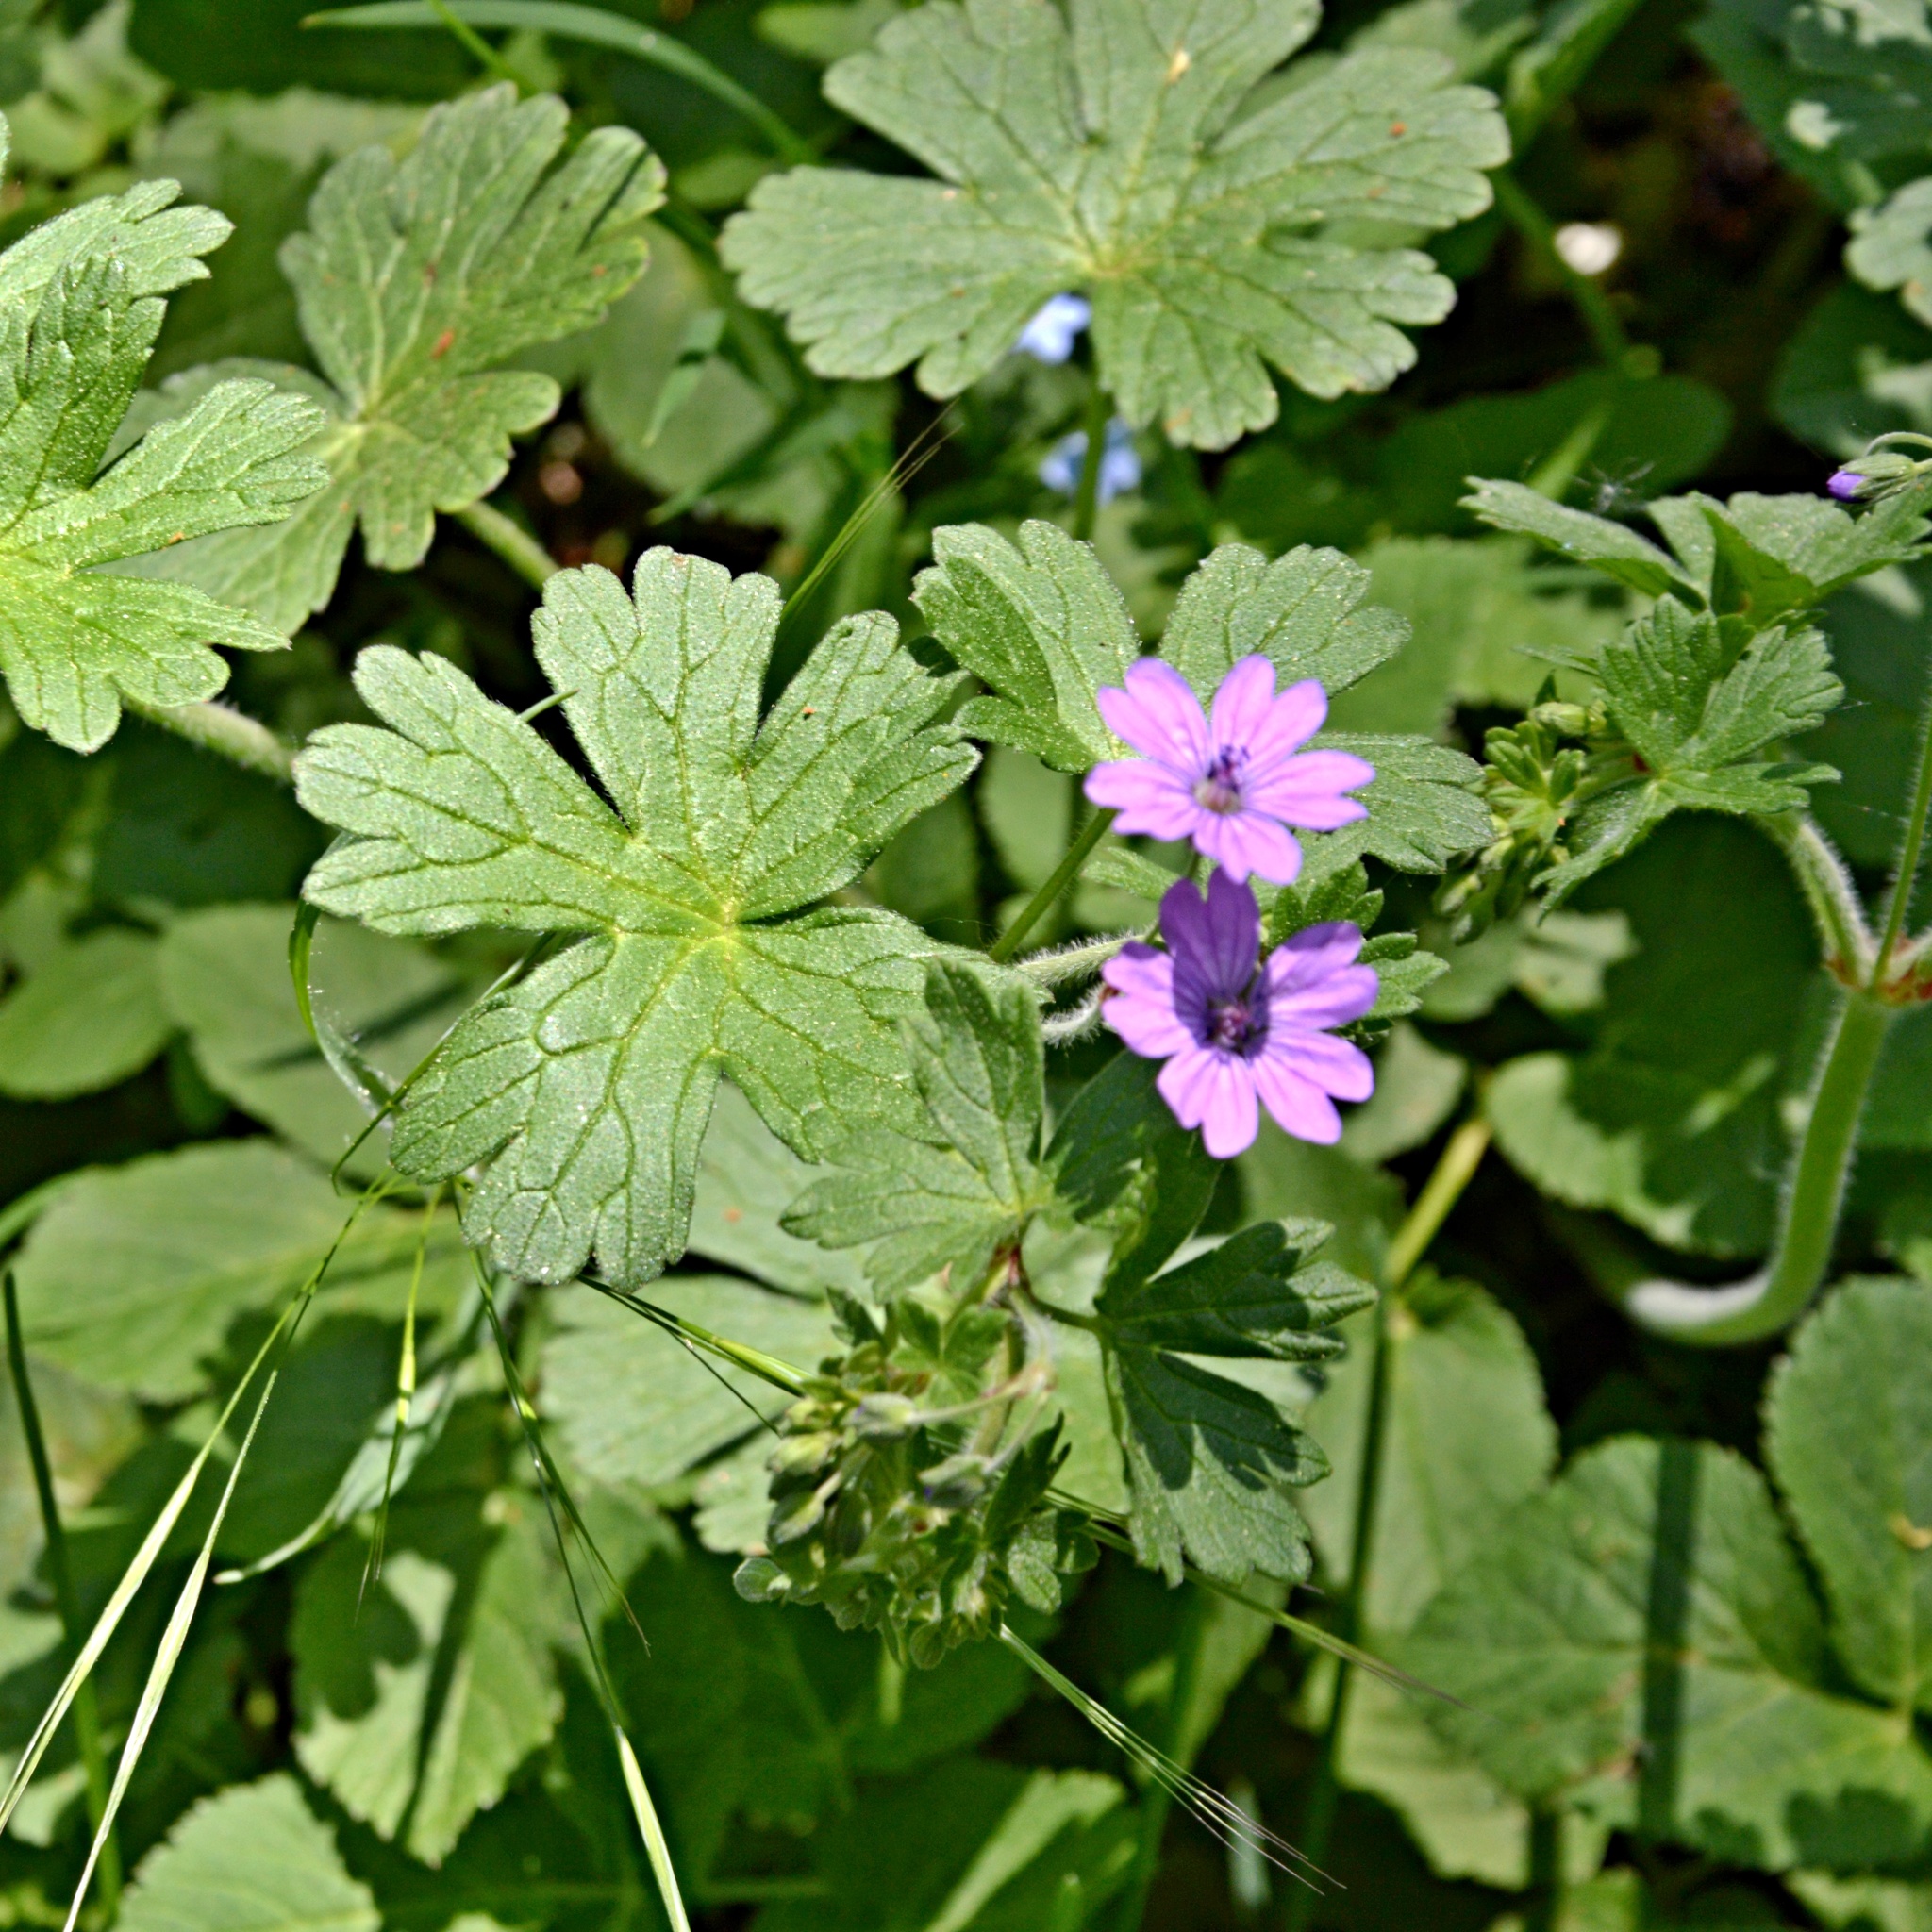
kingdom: Plantae
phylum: Tracheophyta
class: Magnoliopsida
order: Geraniales
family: Geraniaceae
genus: Geranium
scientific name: Geranium pyrenaicum
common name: Hedgerow crane's-bill
